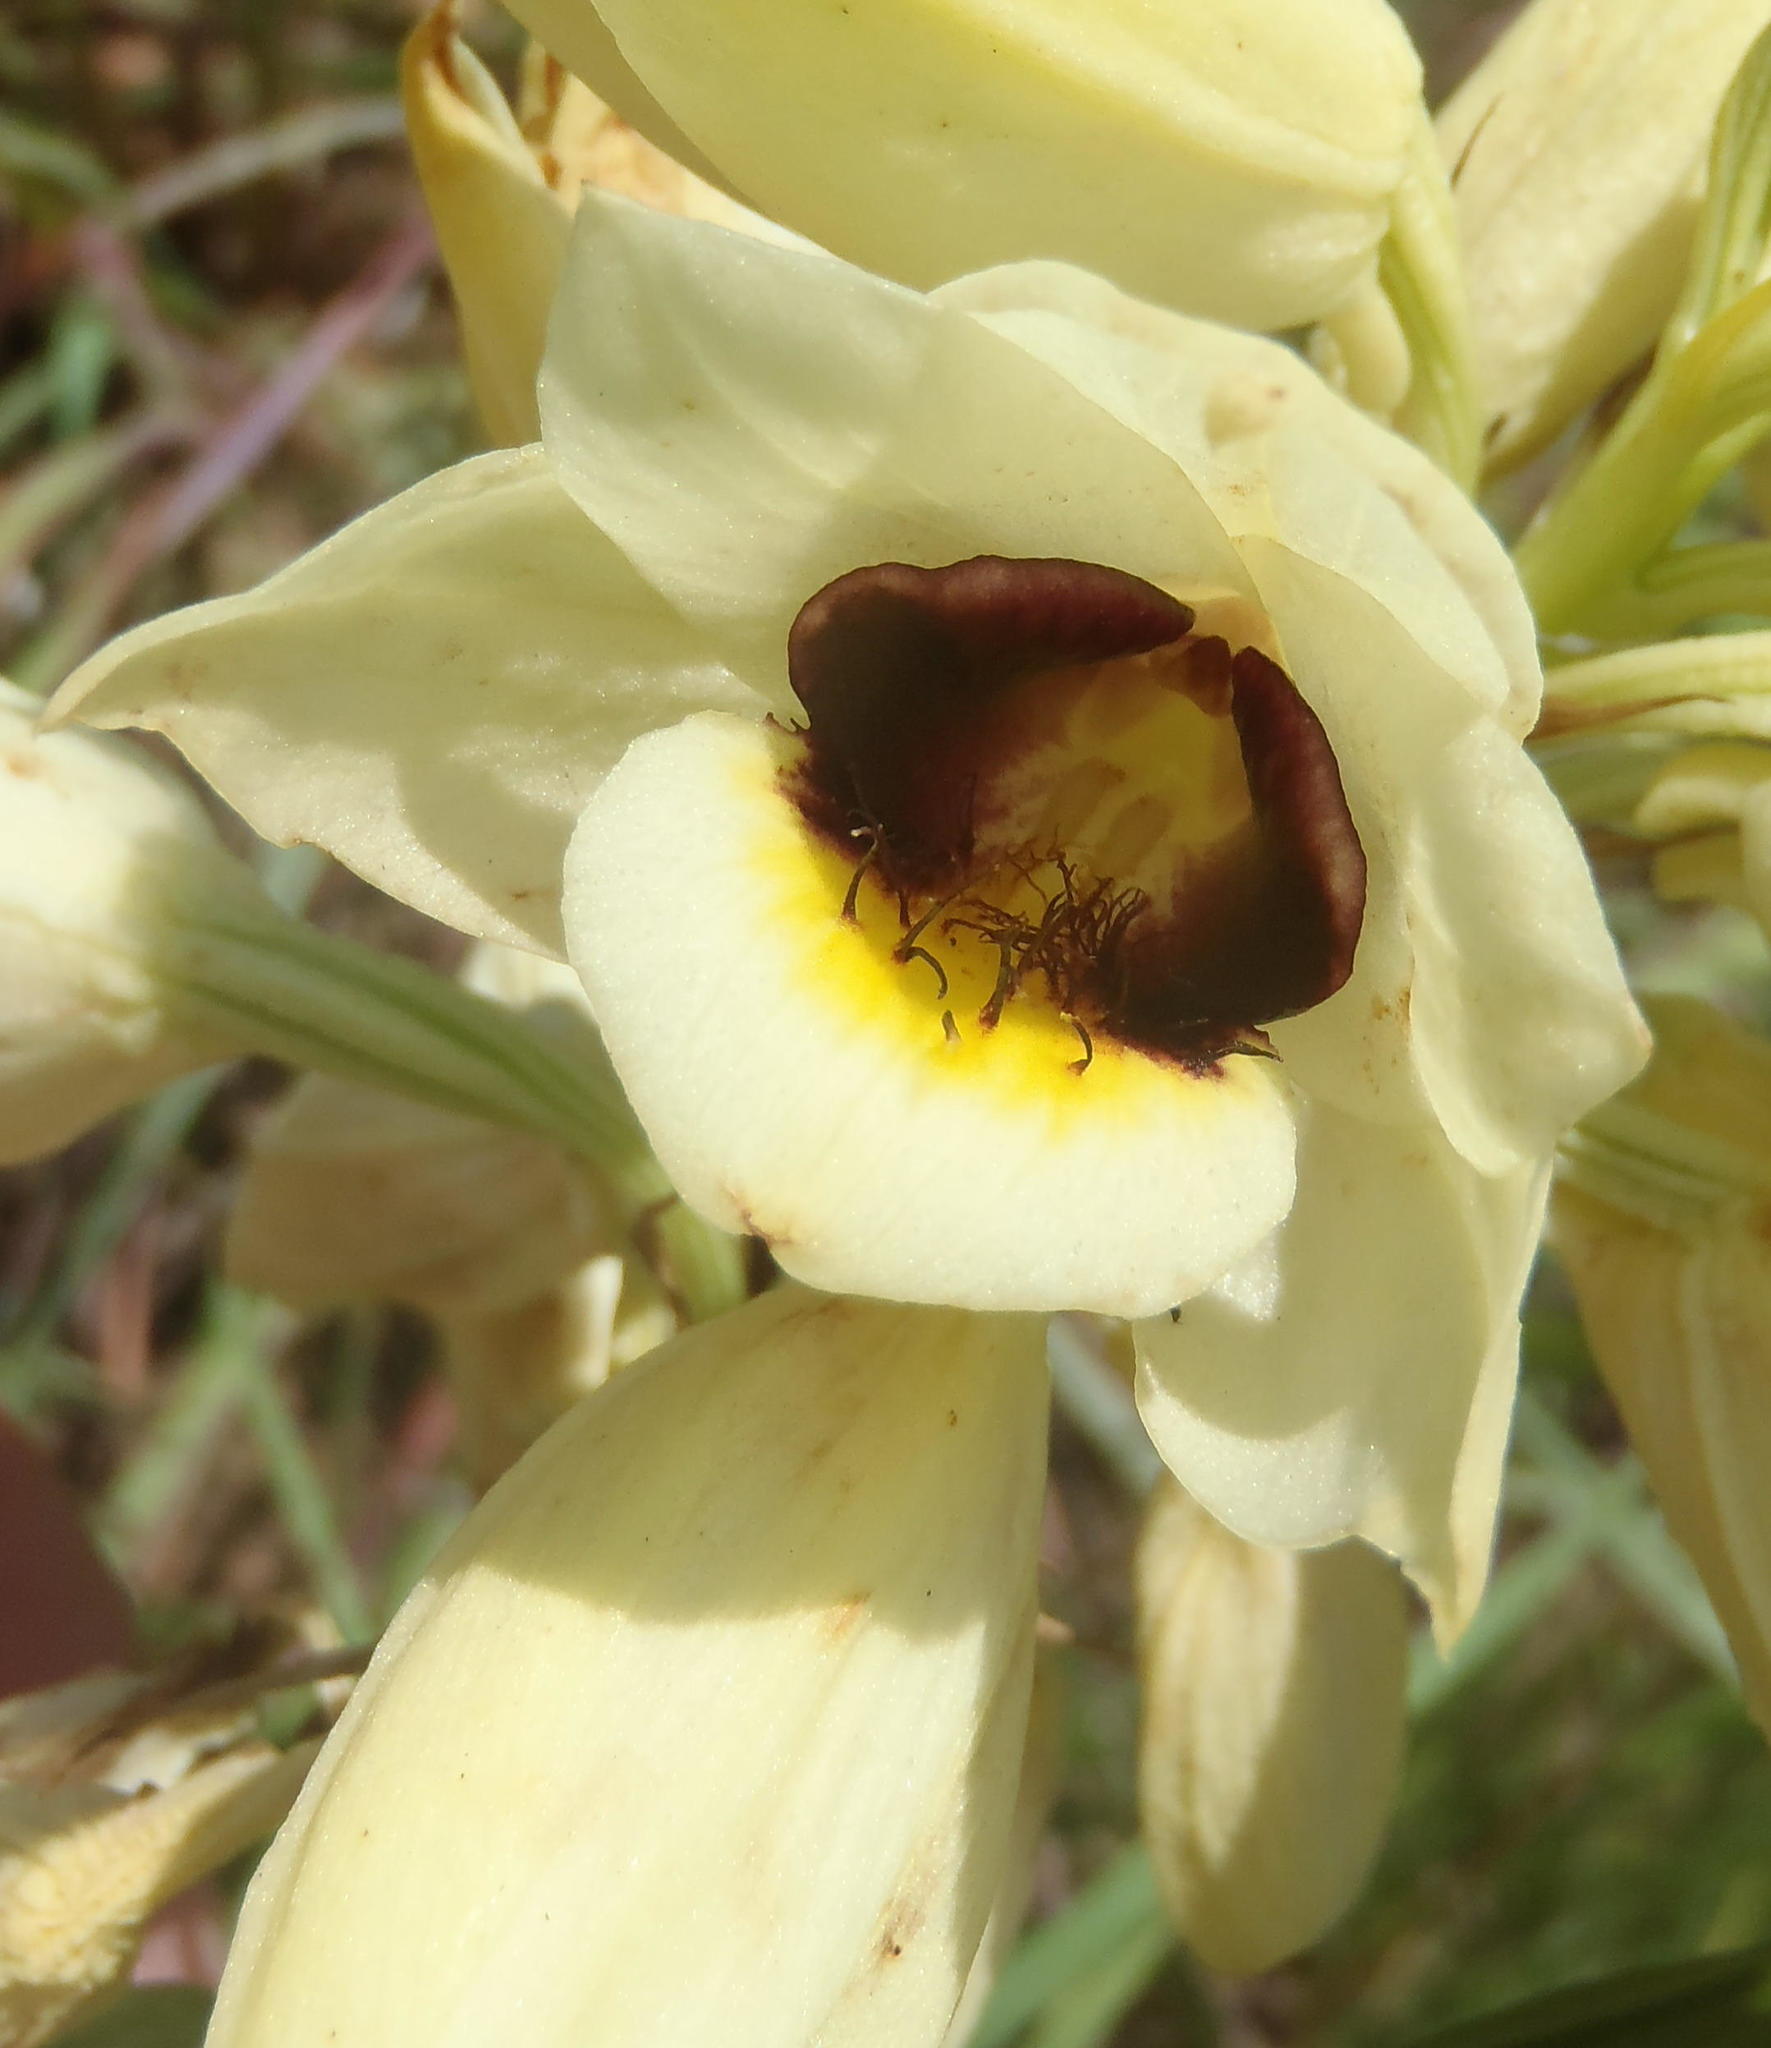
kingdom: Plantae
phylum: Tracheophyta
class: Liliopsida
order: Asparagales
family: Orchidaceae
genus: Eulophia
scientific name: Eulophia welwitschii
